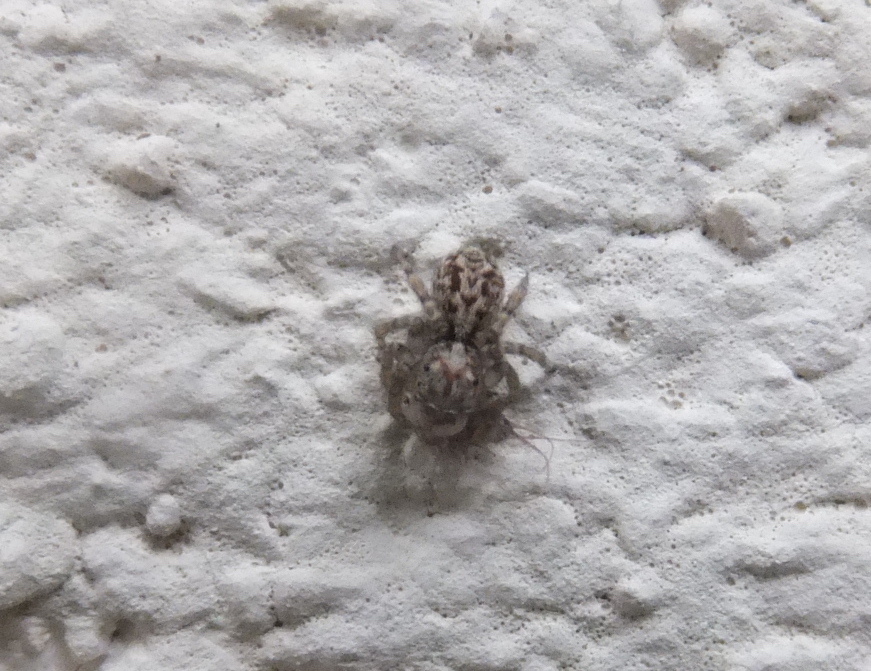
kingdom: Animalia
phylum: Arthropoda
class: Arachnida
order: Araneae
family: Salticidae
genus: Pseudeuophrys
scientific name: Pseudeuophrys vafra
